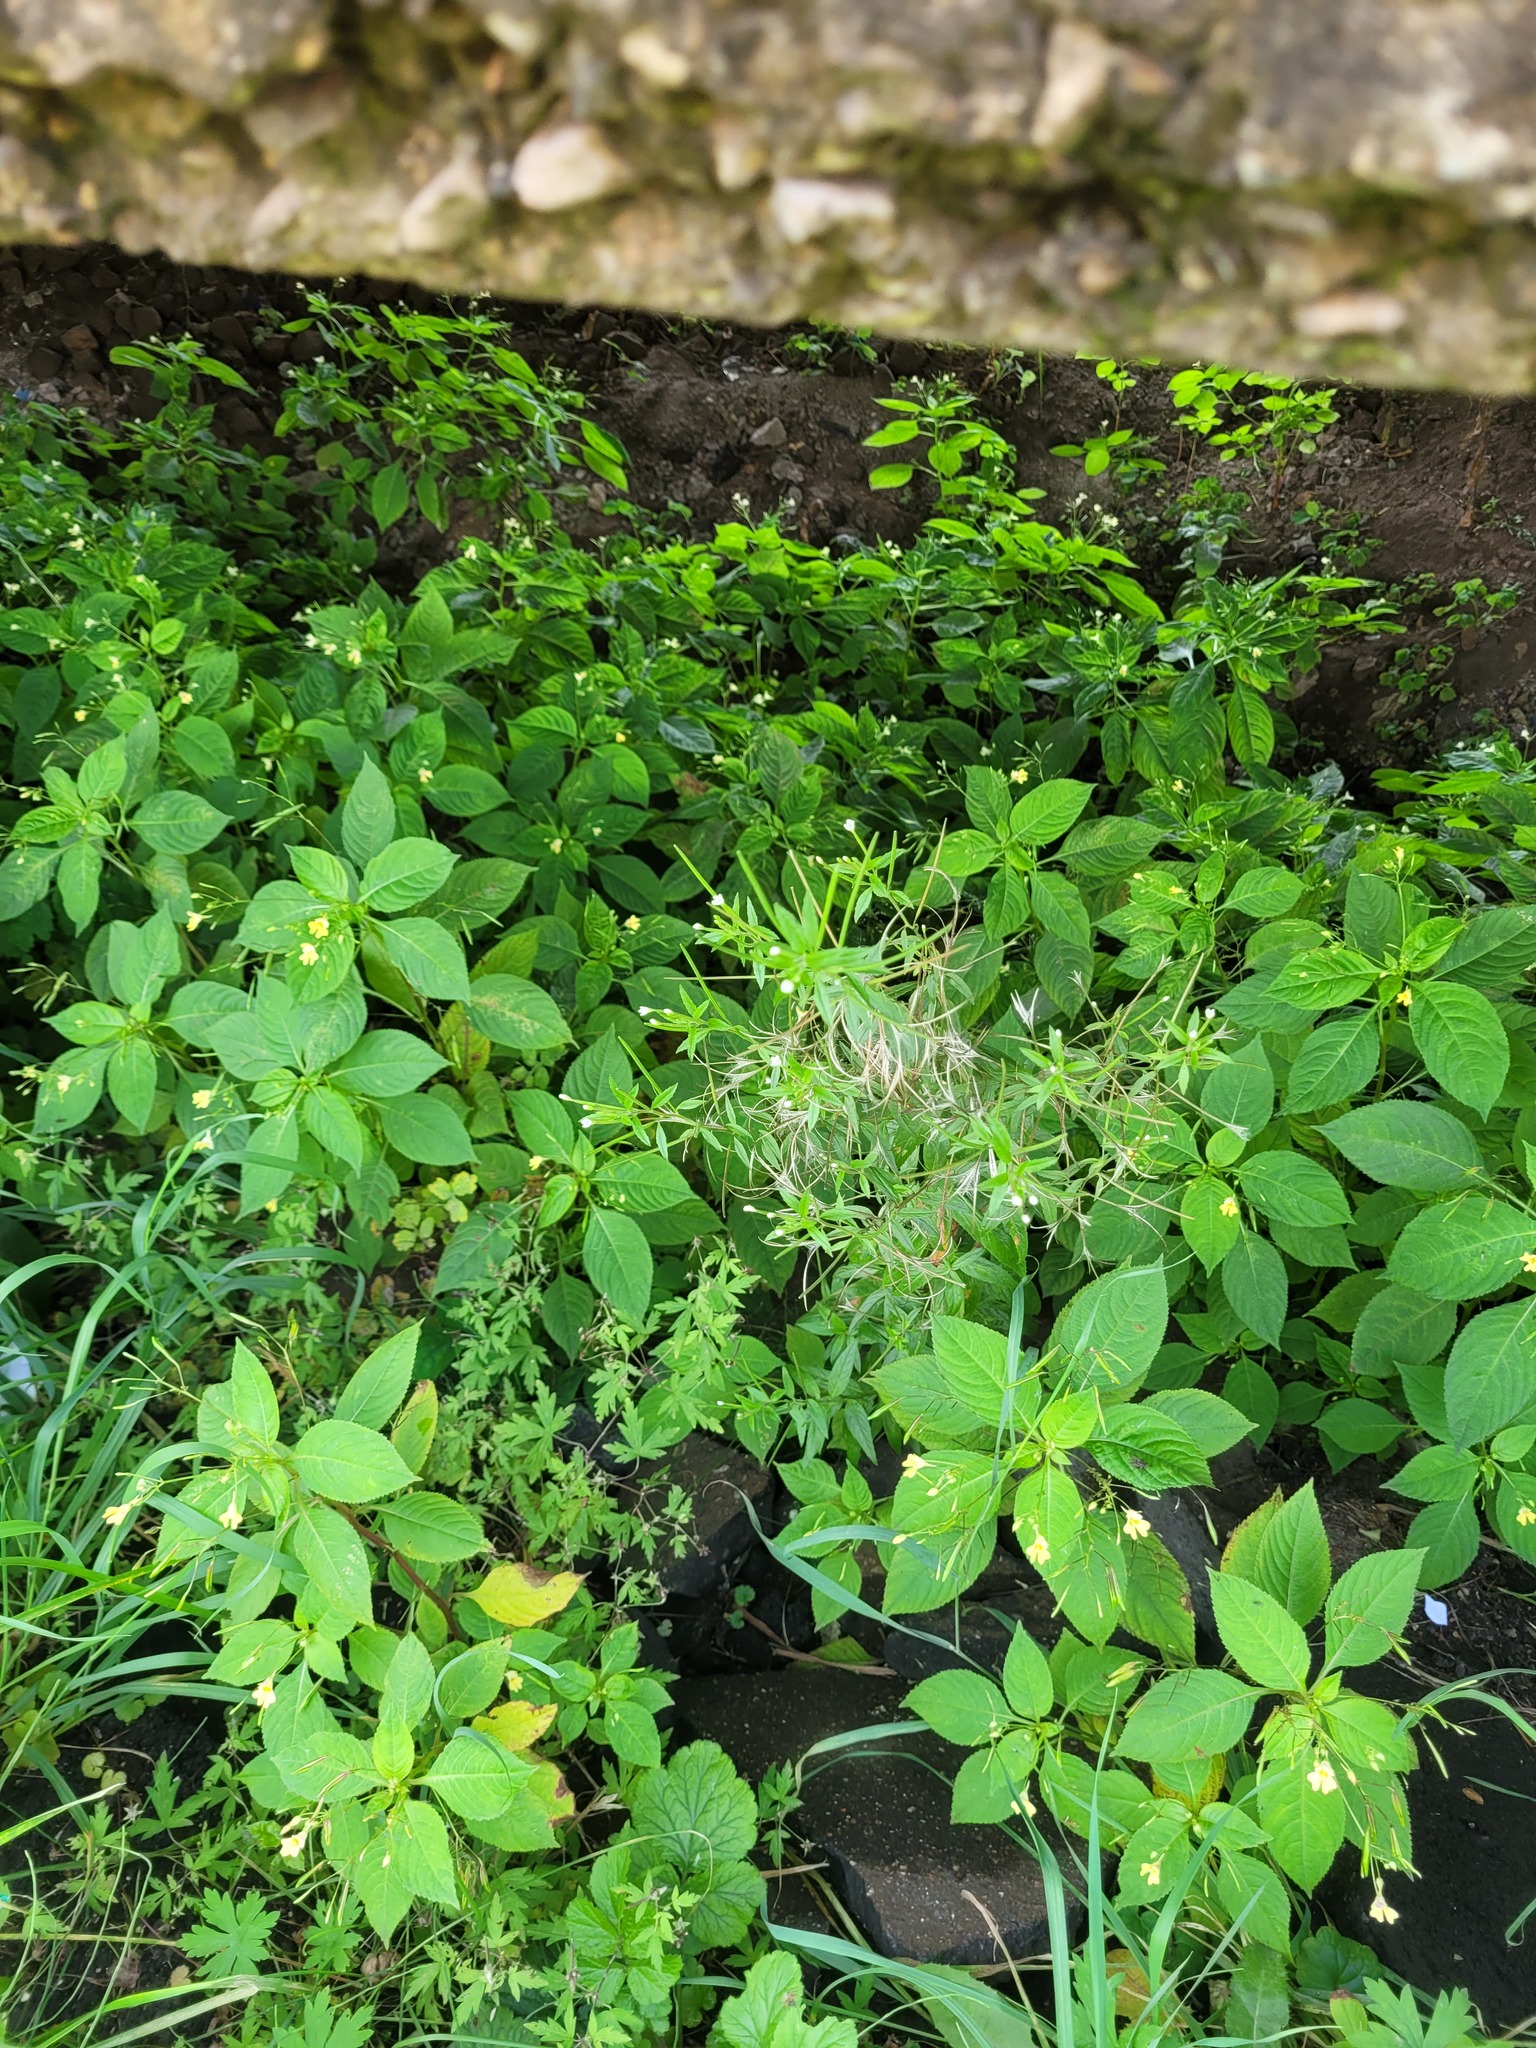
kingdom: Plantae
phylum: Tracheophyta
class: Magnoliopsida
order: Myrtales
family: Onagraceae
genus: Epilobium
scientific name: Epilobium pseudorubescens
